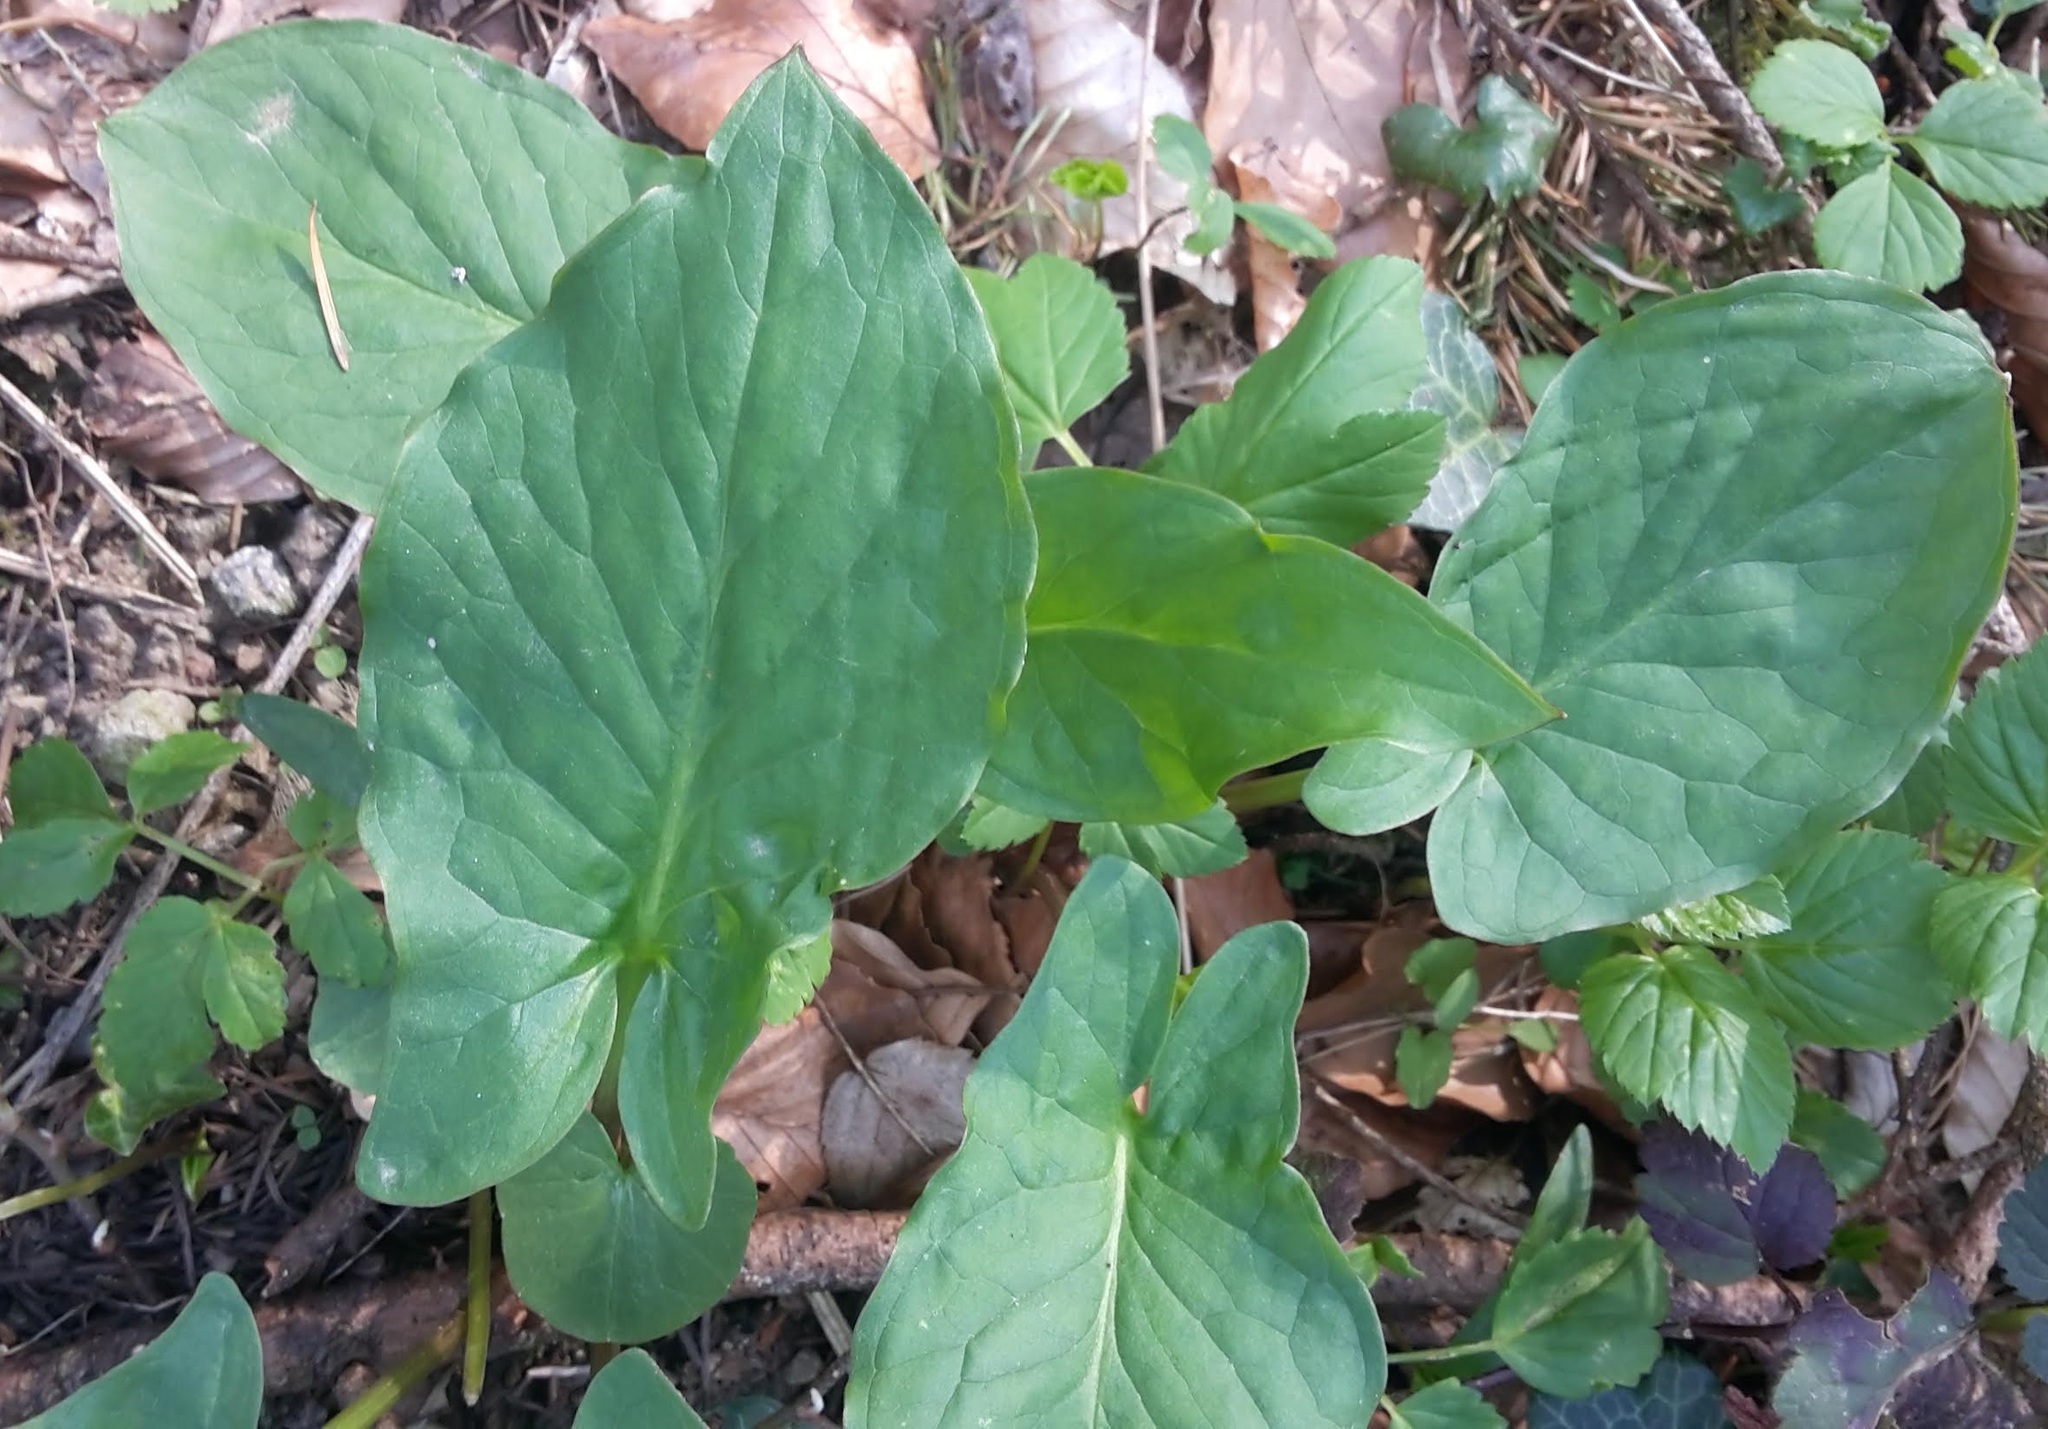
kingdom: Plantae
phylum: Tracheophyta
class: Liliopsida
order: Alismatales
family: Araceae
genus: Arum
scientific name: Arum maculatum
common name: Lords-and-ladies
